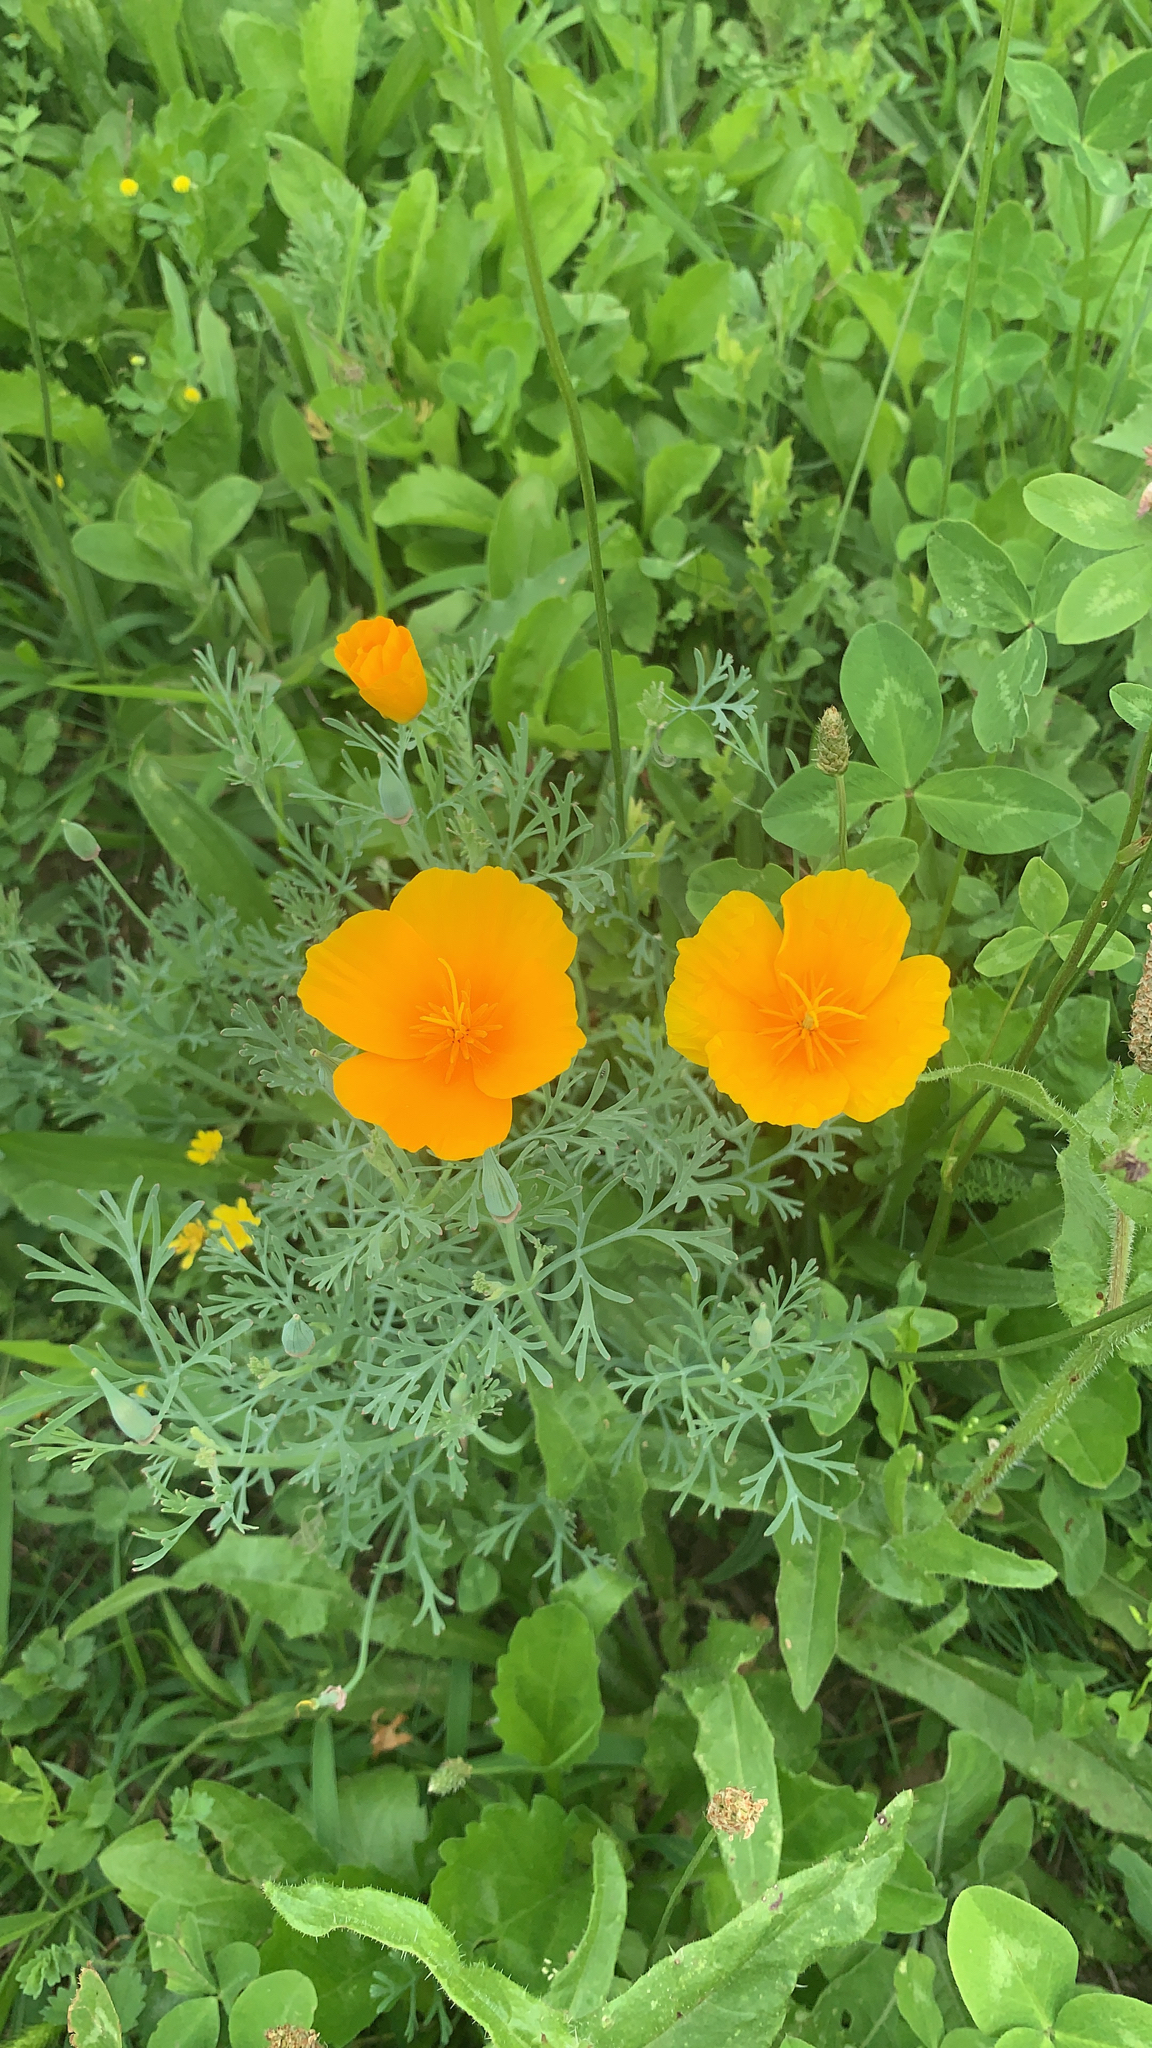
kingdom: Plantae
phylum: Tracheophyta
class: Magnoliopsida
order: Ranunculales
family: Papaveraceae
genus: Eschscholzia
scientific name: Eschscholzia californica
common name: California poppy
